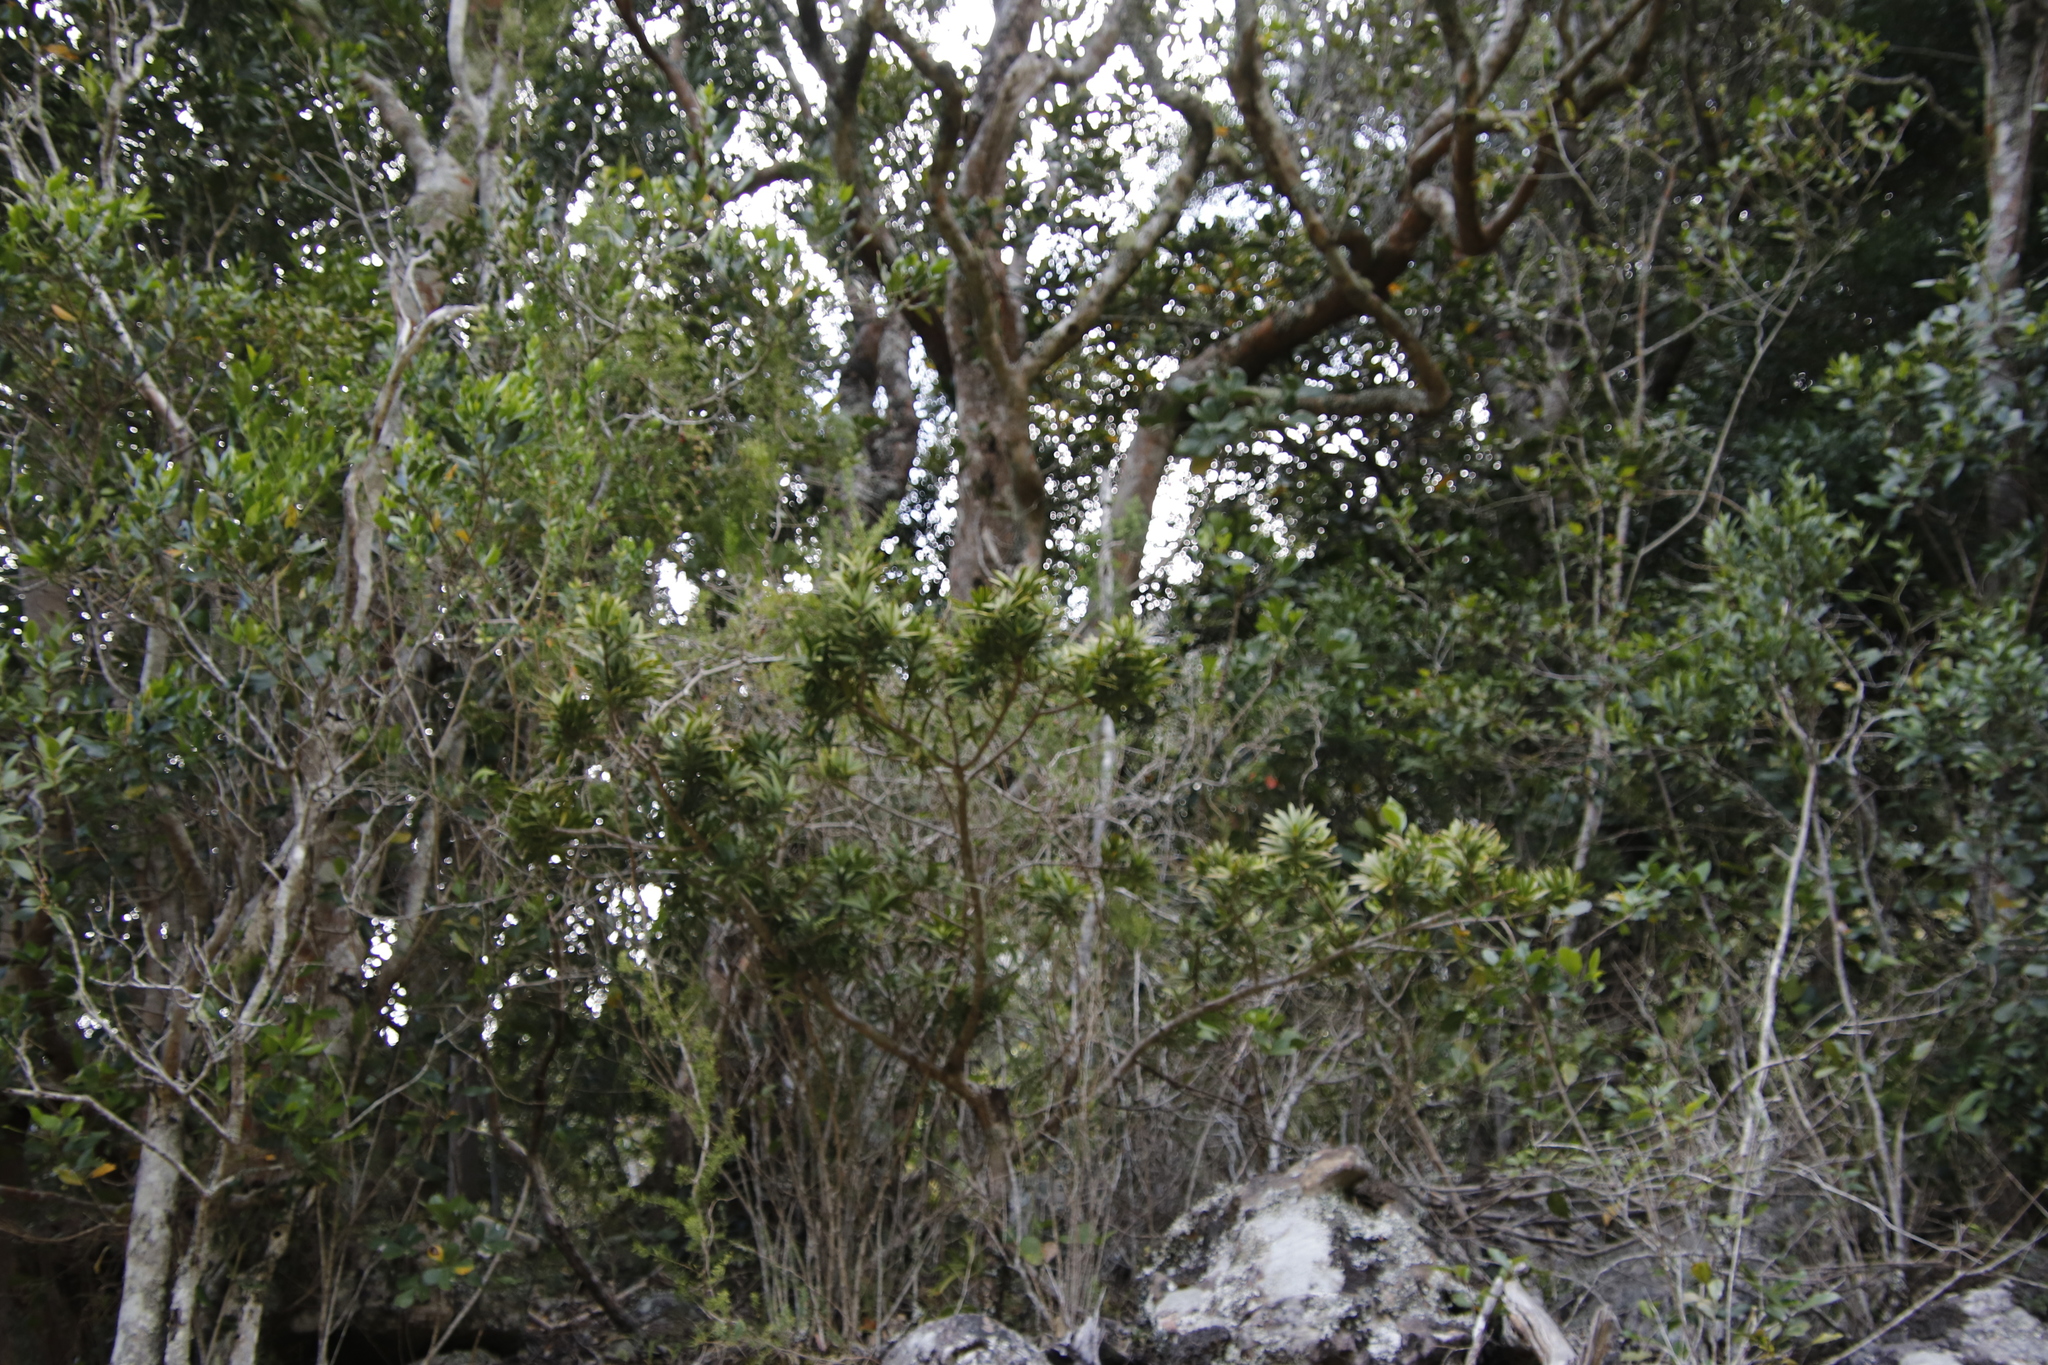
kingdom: Plantae
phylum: Tracheophyta
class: Pinopsida
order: Pinales
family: Podocarpaceae
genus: Podocarpus
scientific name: Podocarpus latifolius
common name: True yellowwood
